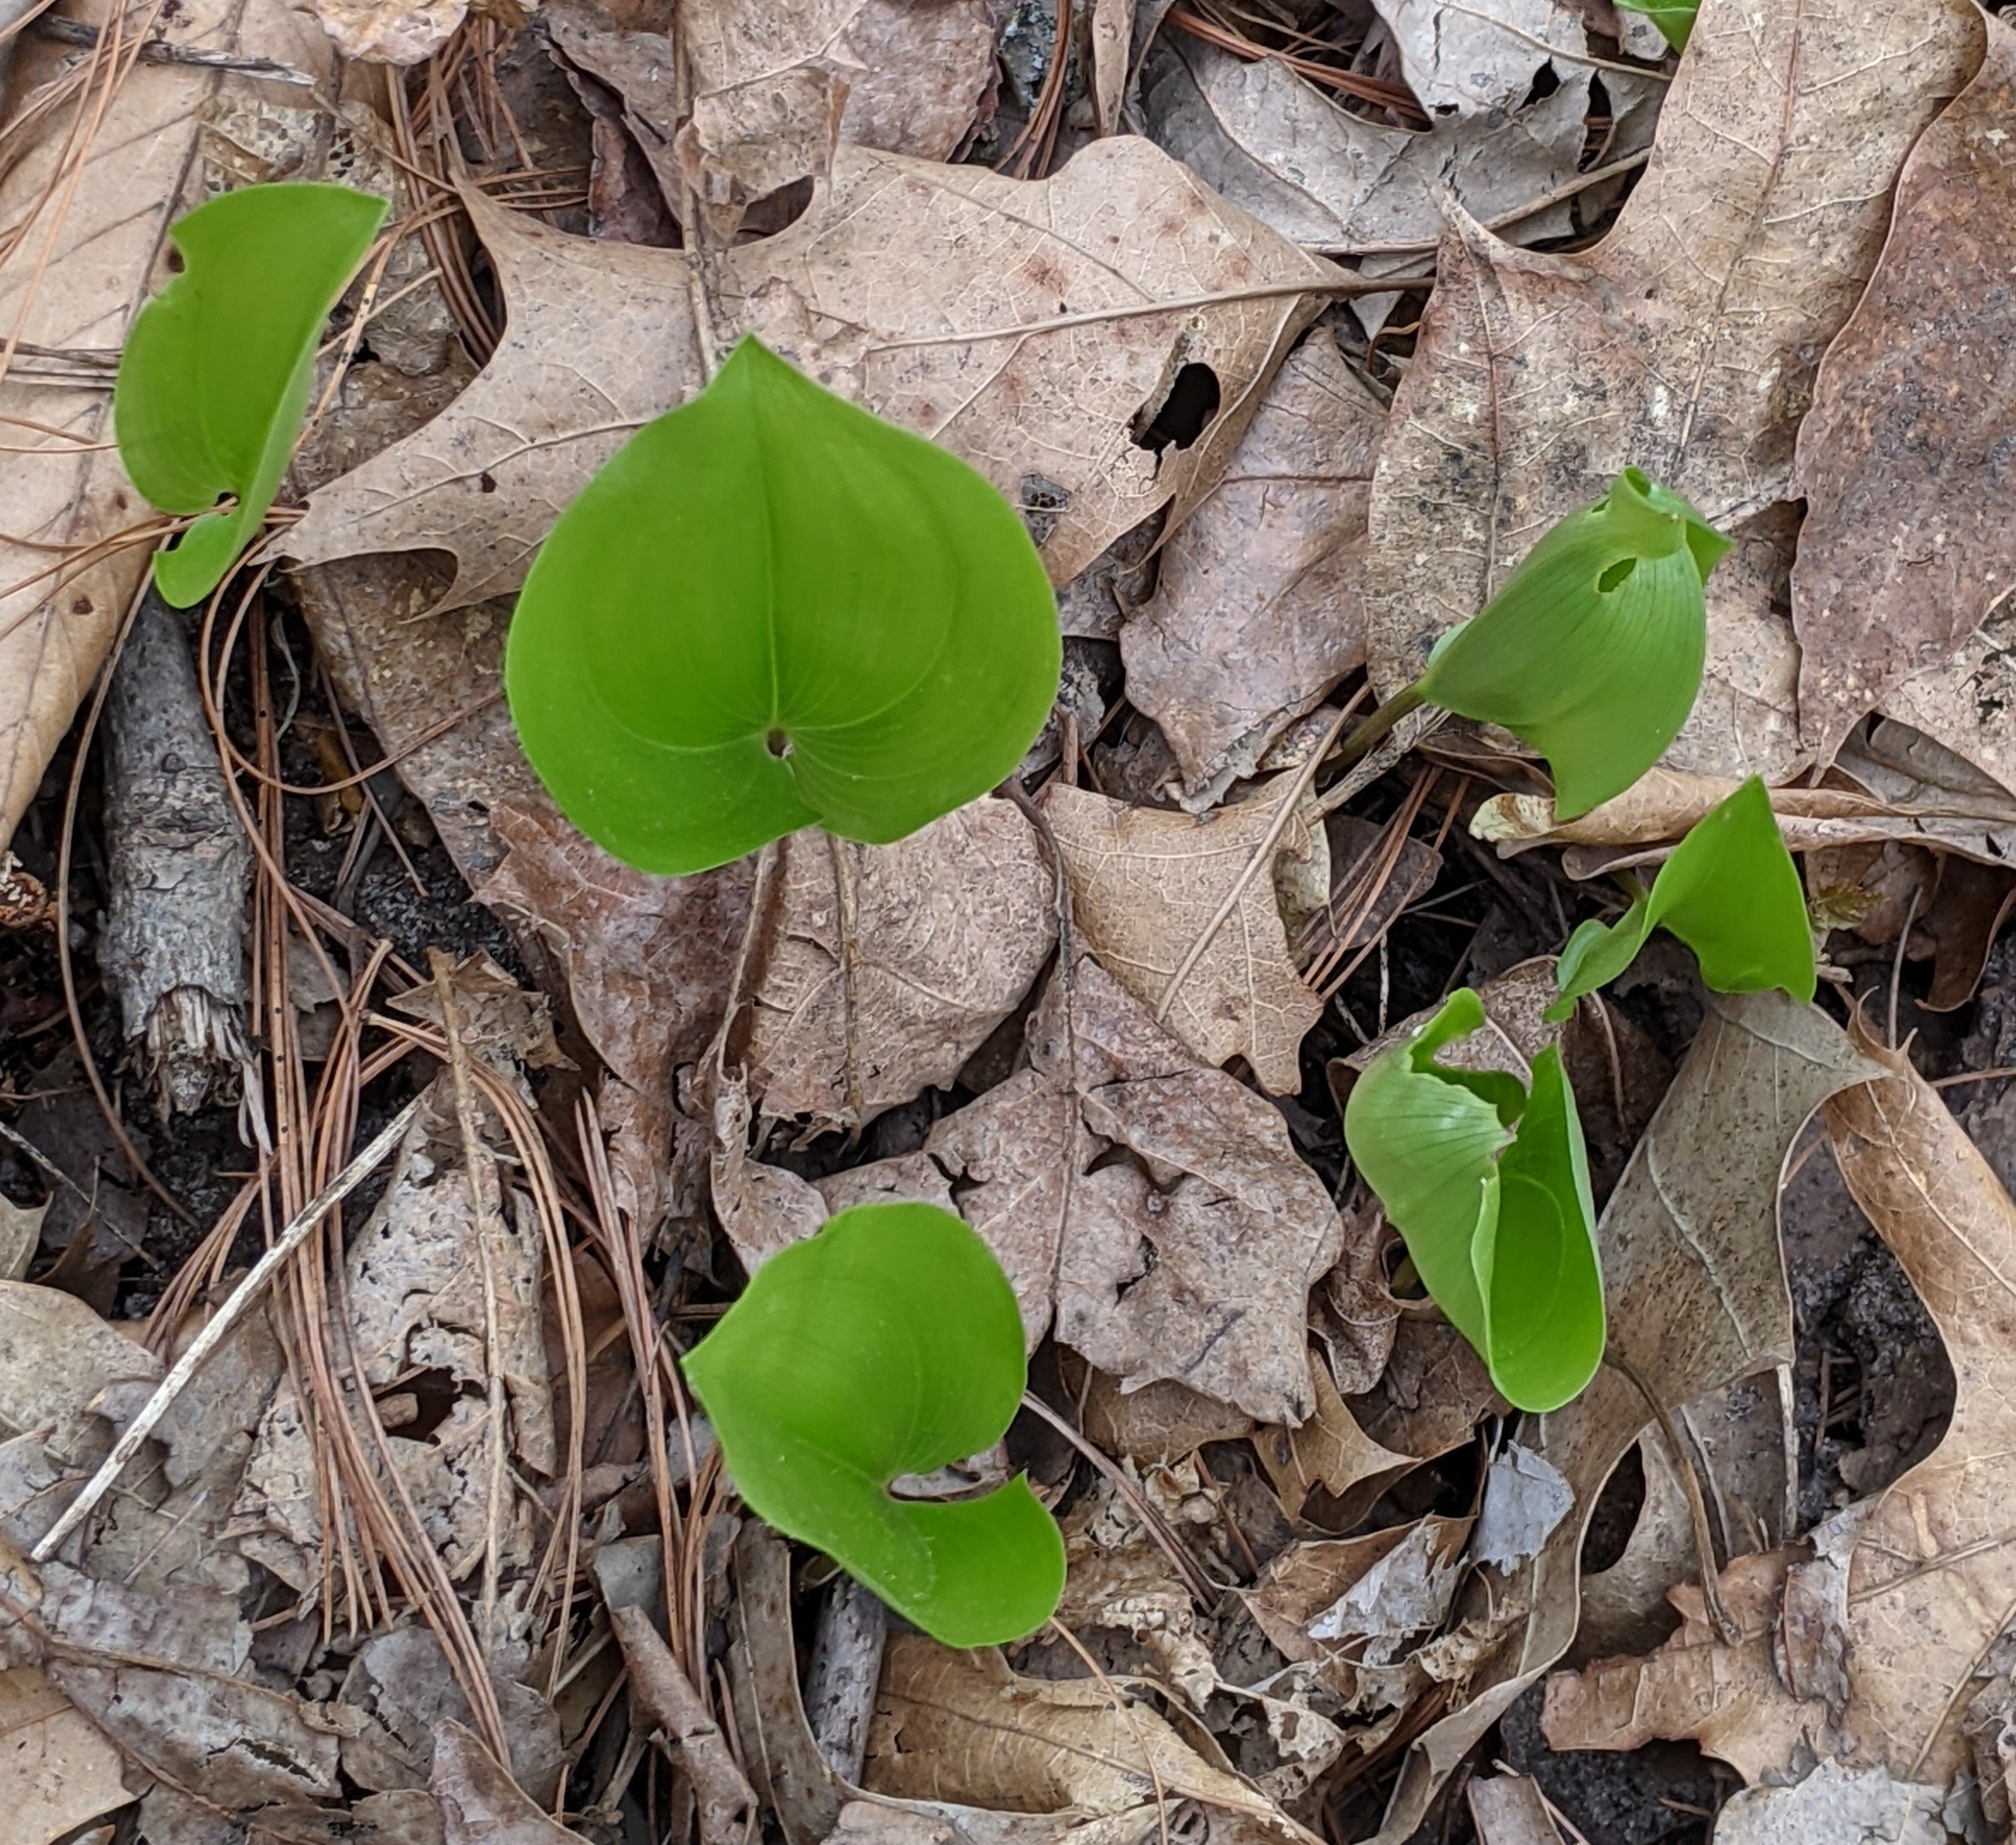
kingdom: Plantae
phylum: Tracheophyta
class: Liliopsida
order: Asparagales
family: Asparagaceae
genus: Maianthemum
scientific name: Maianthemum canadense
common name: False lily-of-the-valley
